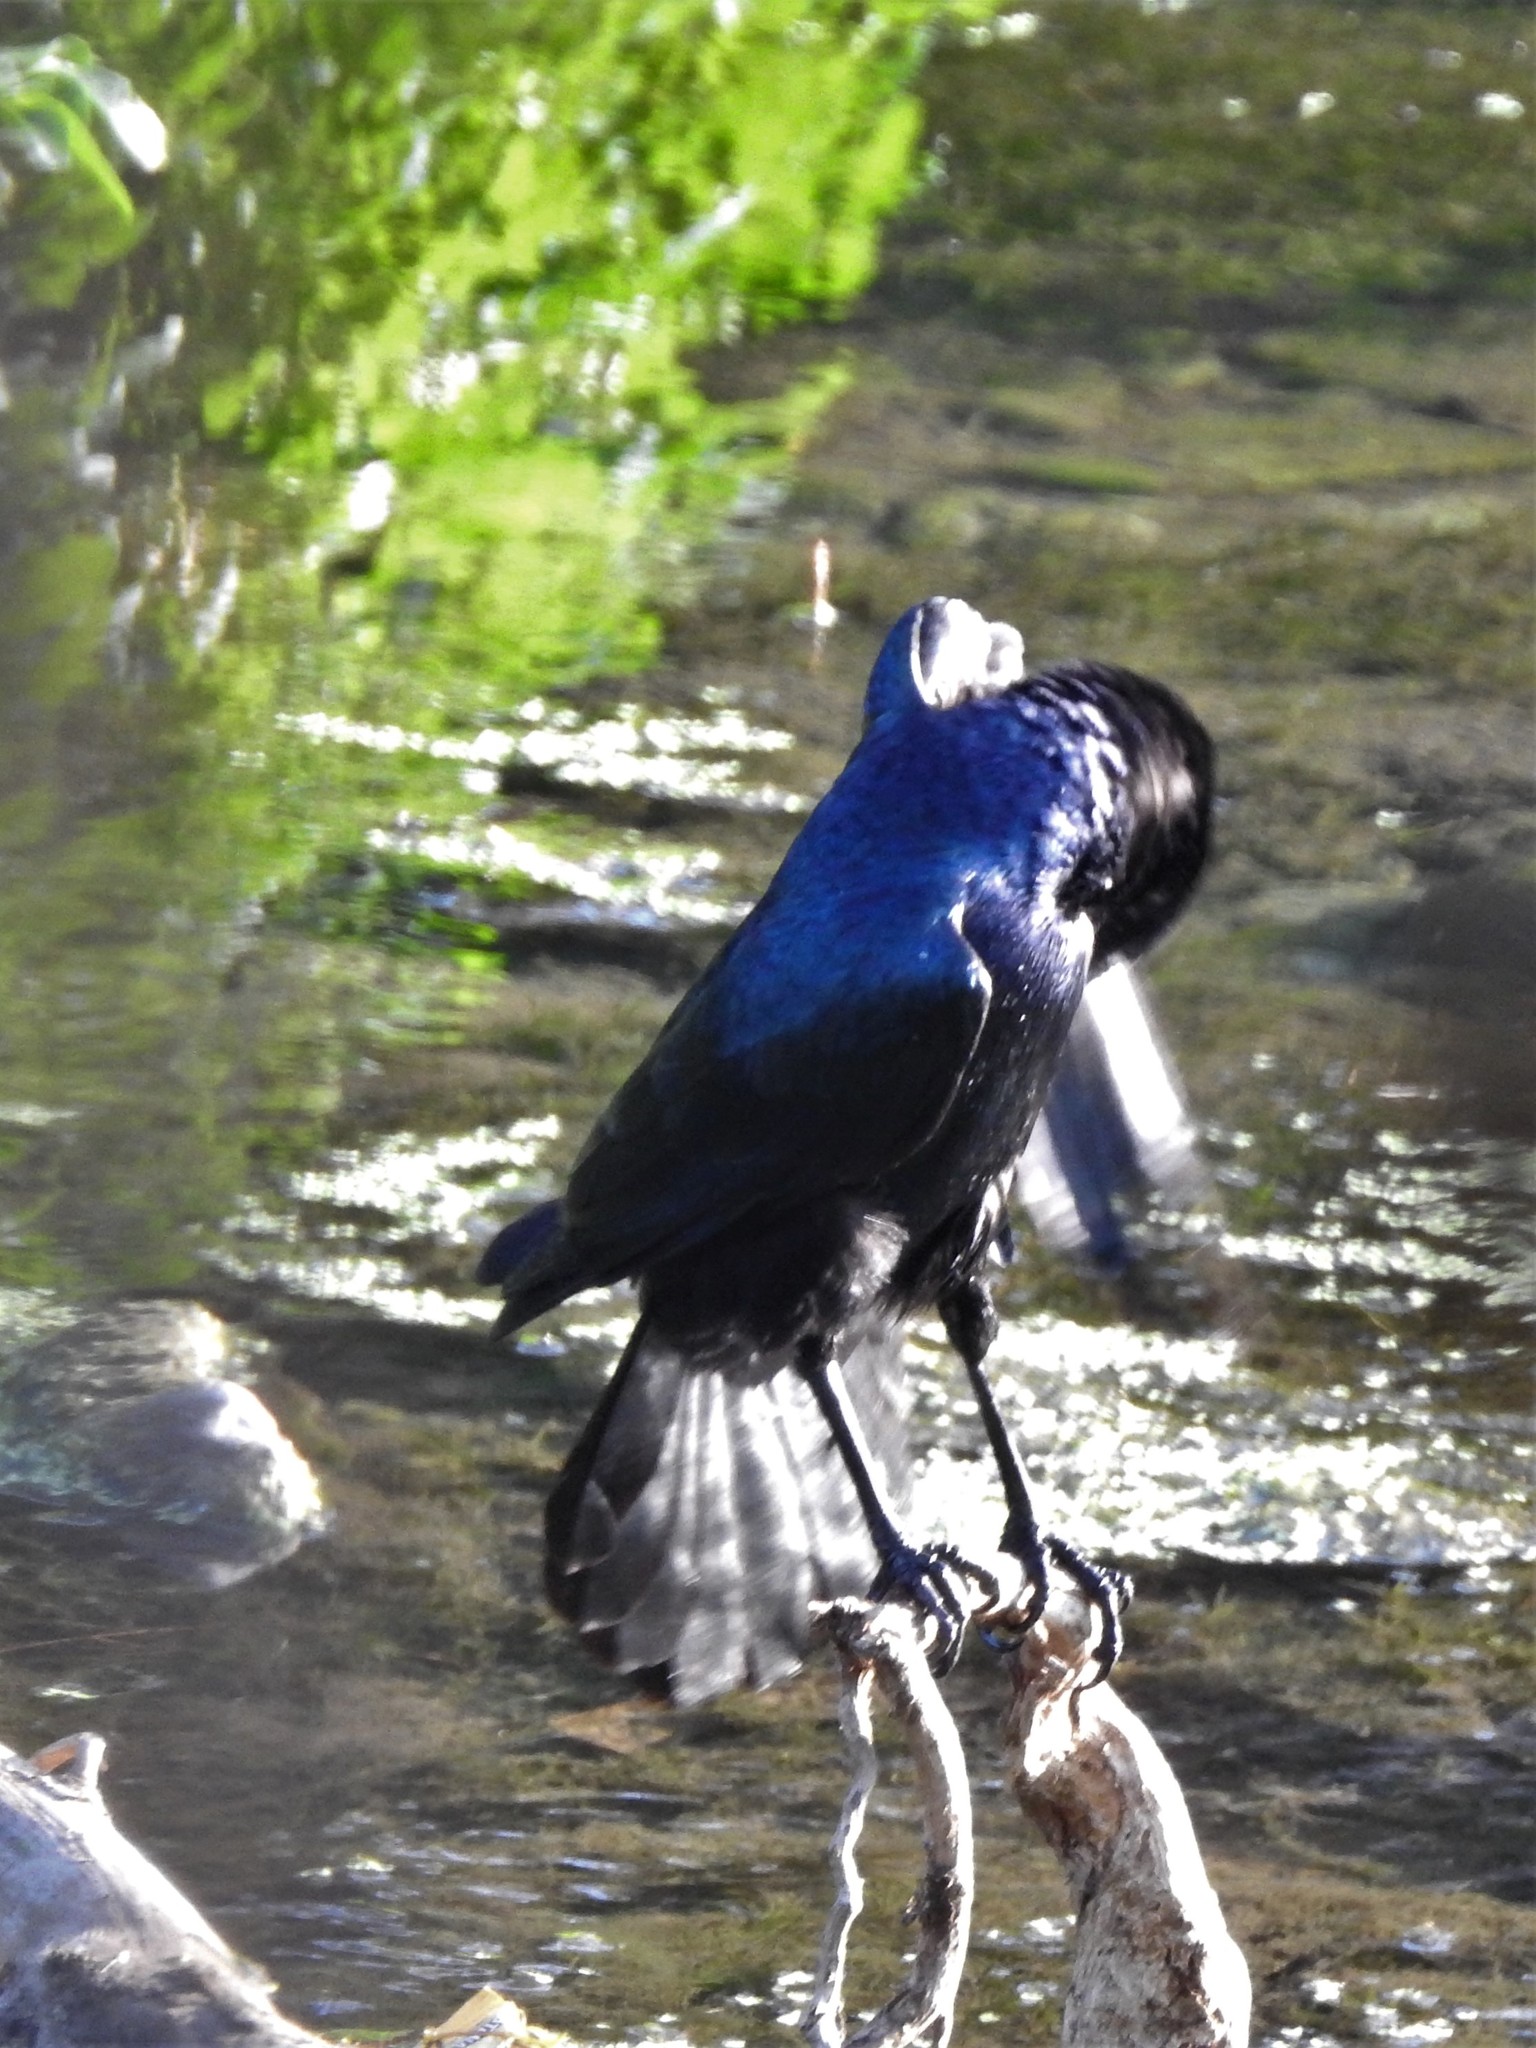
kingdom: Animalia
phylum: Chordata
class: Aves
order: Passeriformes
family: Icteridae
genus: Quiscalus
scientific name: Quiscalus mexicanus
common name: Great-tailed grackle
